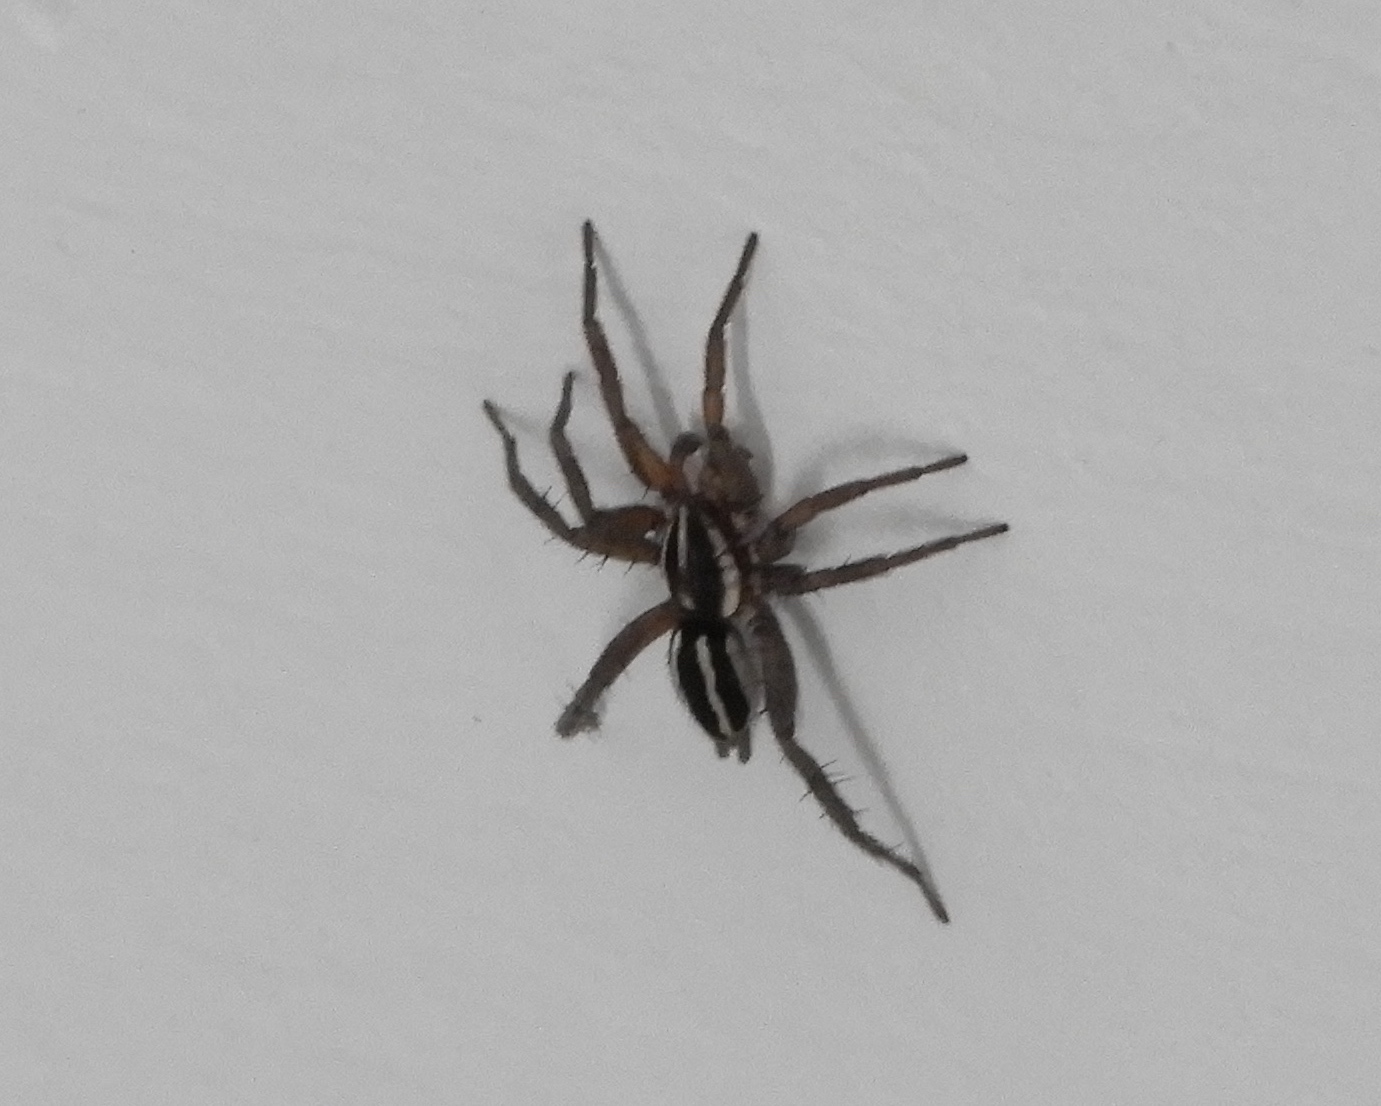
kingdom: Animalia
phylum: Arthropoda
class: Arachnida
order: Araneae
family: Gnaphosidae
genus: Cesonia
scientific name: Cesonia
